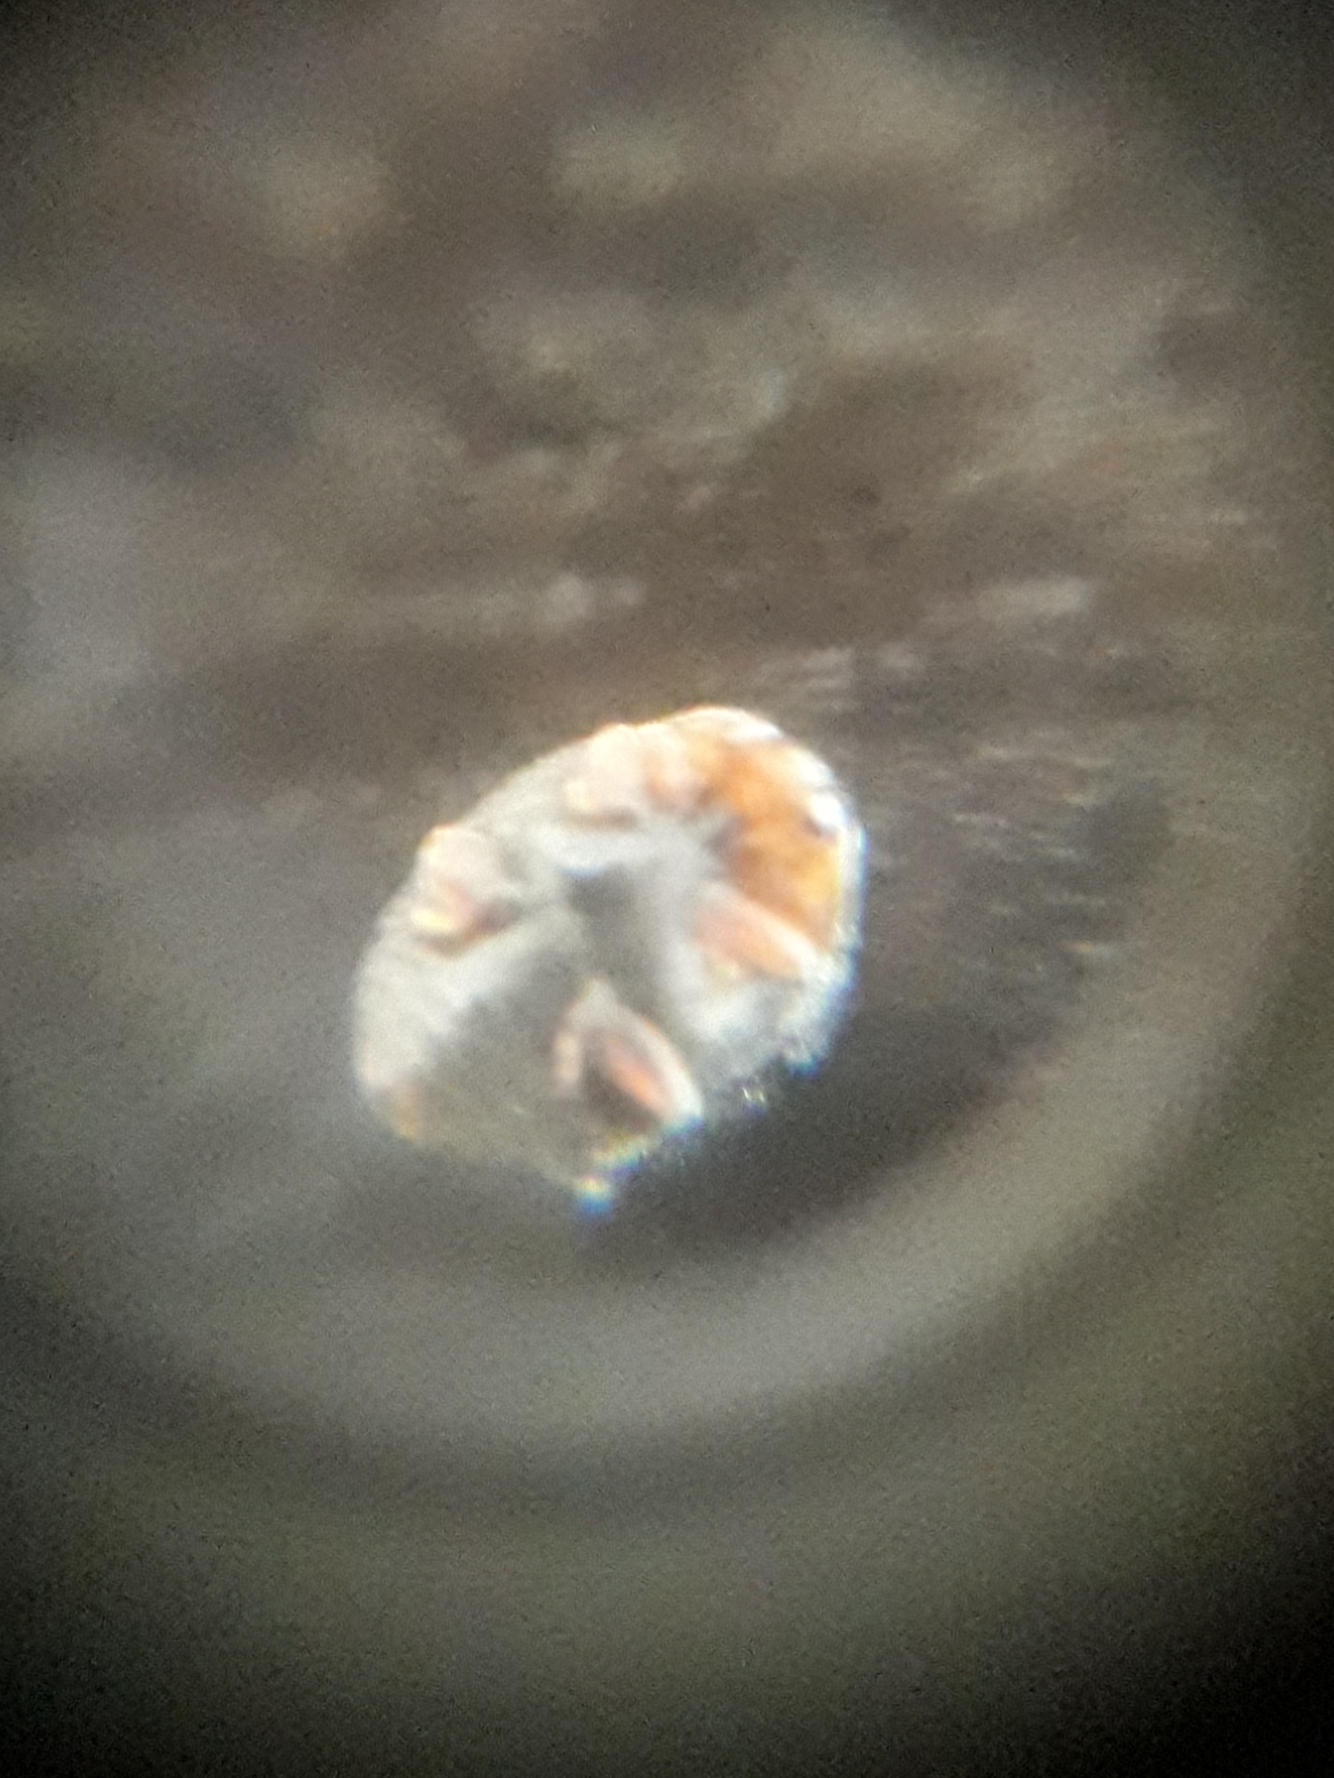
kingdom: Animalia
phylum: Arthropoda
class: Insecta
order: Coleoptera
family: Coccinellidae
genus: Scymnus
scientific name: Scymnus auritus
